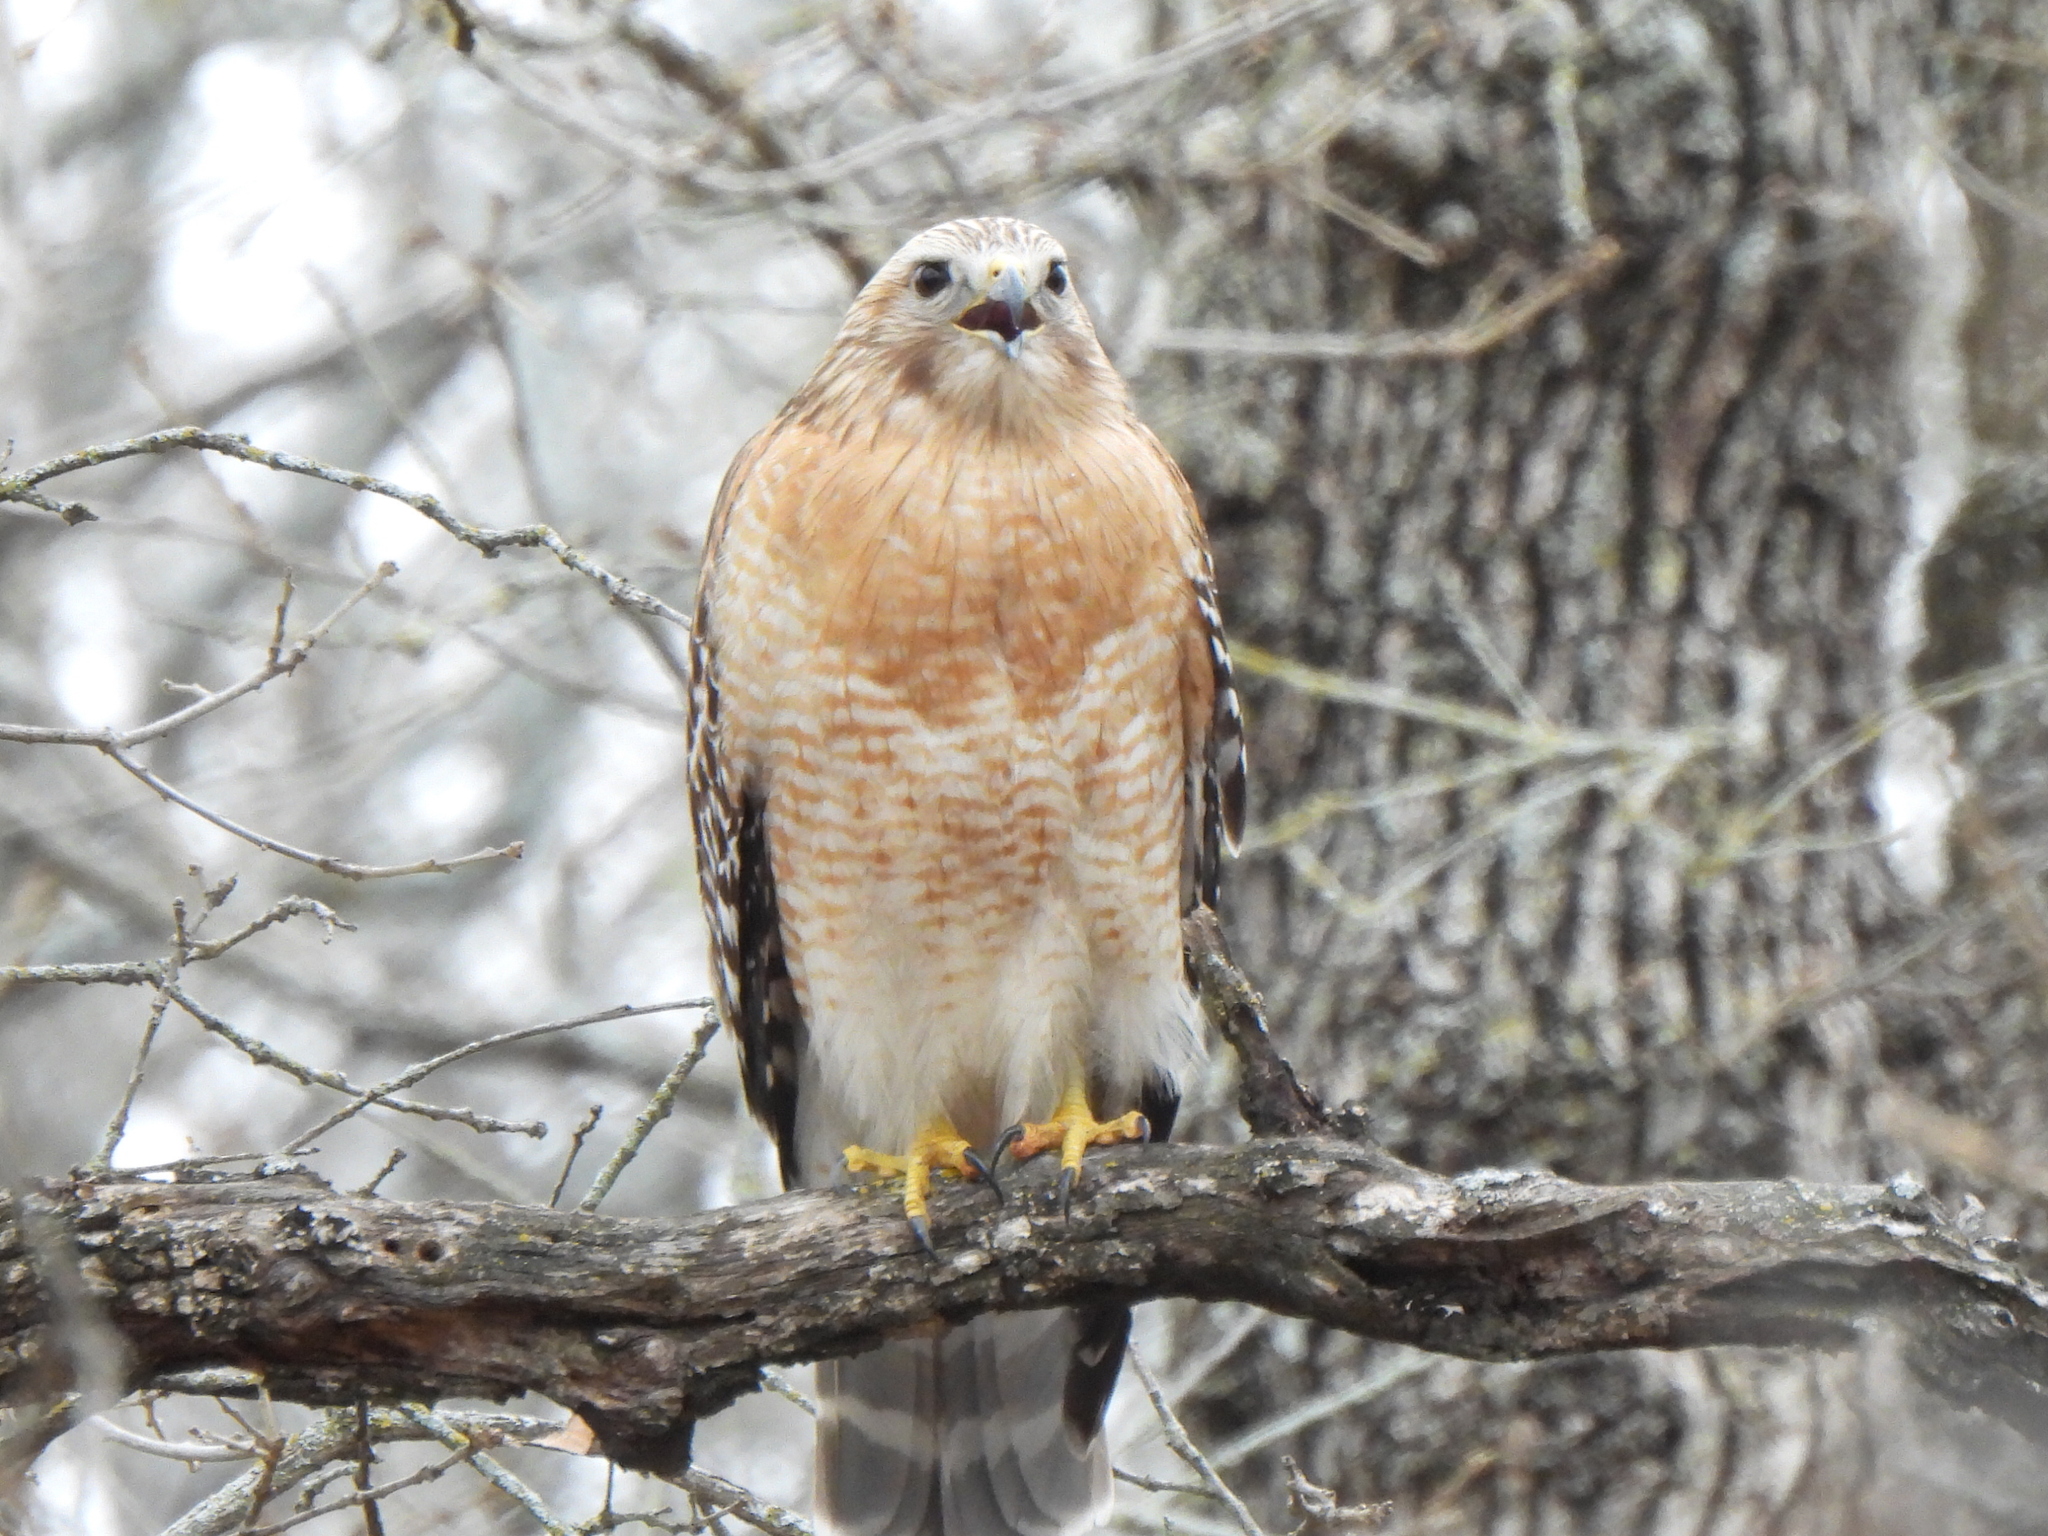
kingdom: Animalia
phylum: Chordata
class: Aves
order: Accipitriformes
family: Accipitridae
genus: Buteo
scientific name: Buteo lineatus
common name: Red-shouldered hawk
